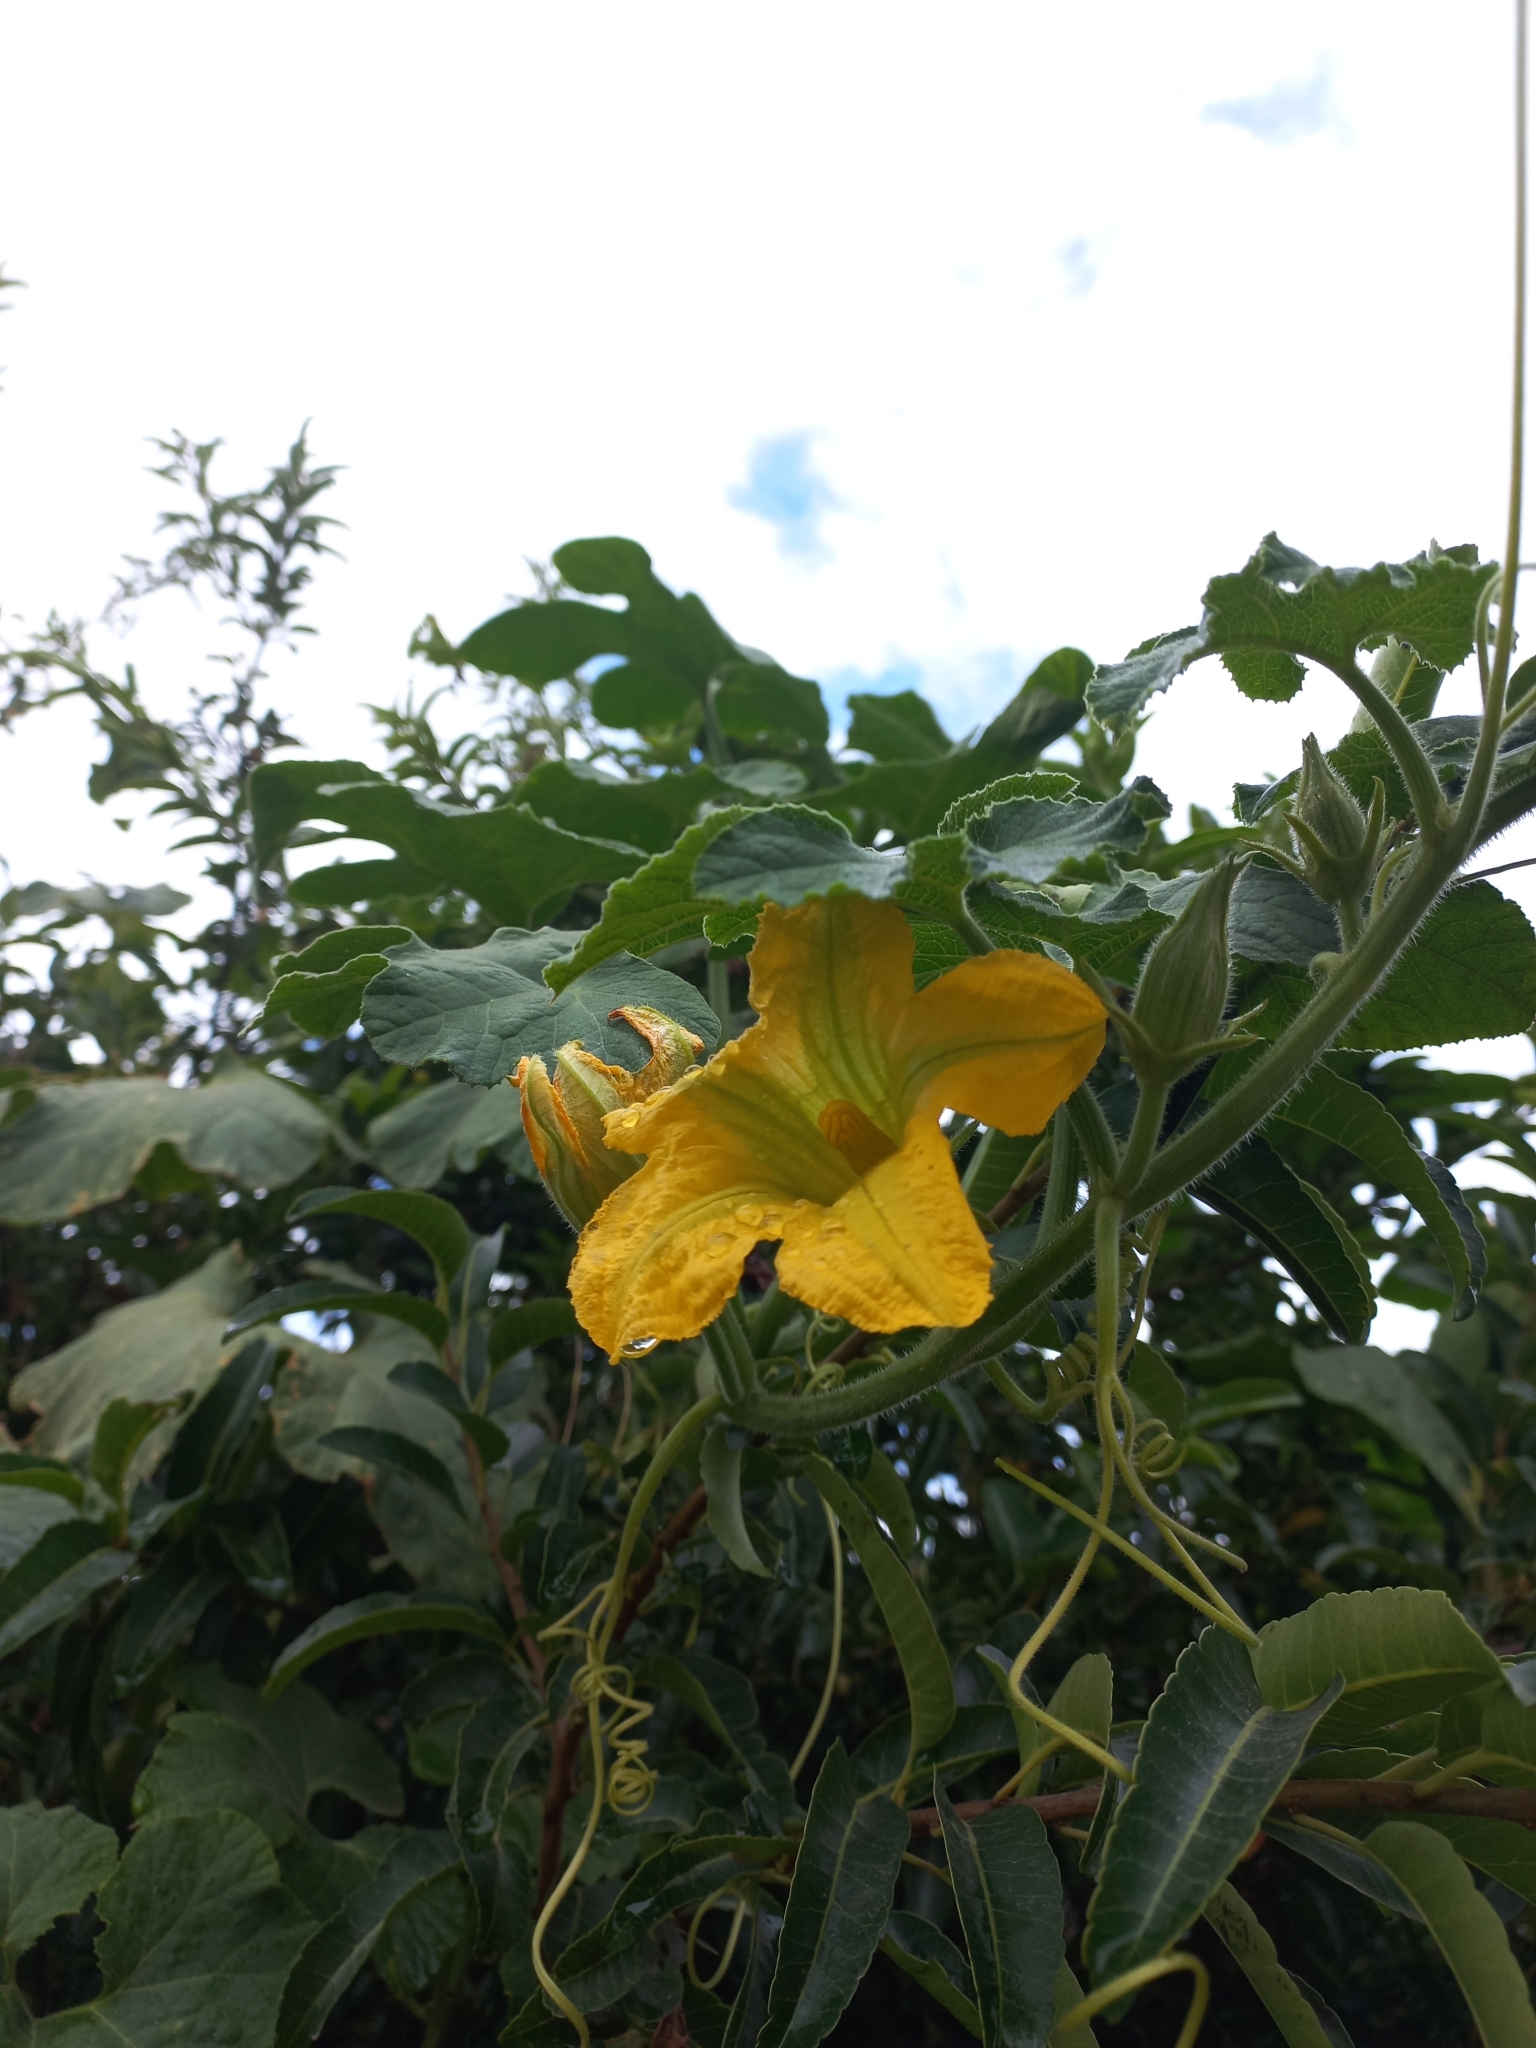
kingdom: Plantae
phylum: Tracheophyta
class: Magnoliopsida
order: Cucurbitales
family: Cucurbitaceae
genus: Cucurbita
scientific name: Cucurbita ficifolia
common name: Figleaf gourd
